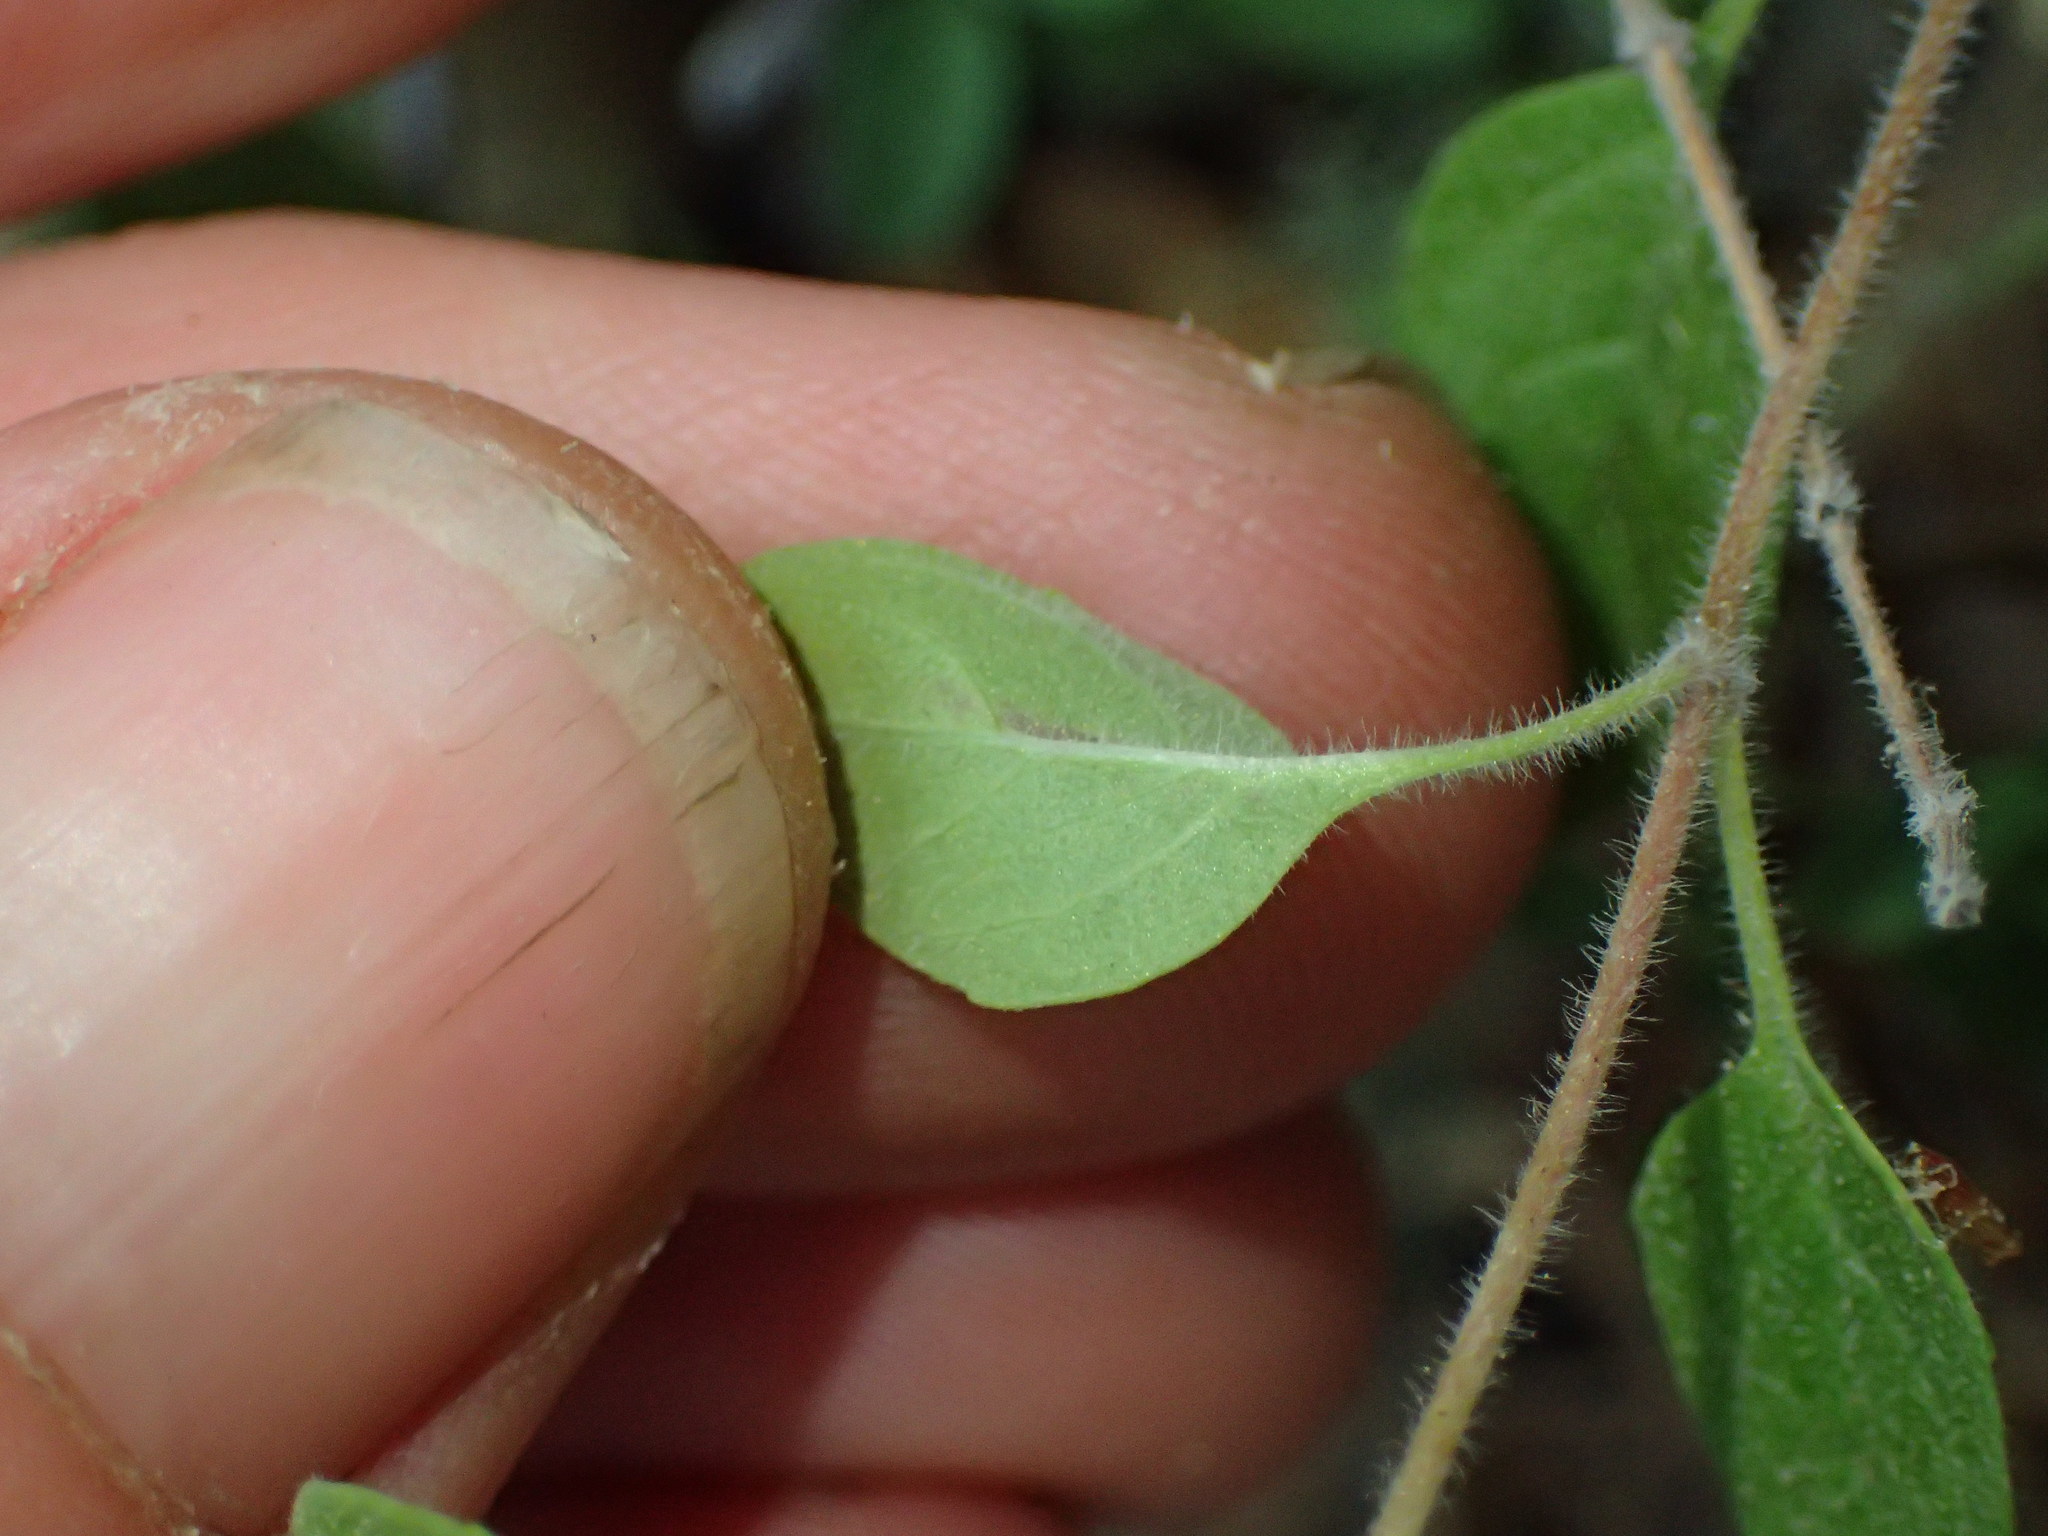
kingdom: Plantae
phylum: Tracheophyta
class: Magnoliopsida
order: Lamiales
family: Lamiaceae
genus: Monardella
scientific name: Monardella odoratissima
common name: Pacific monardella
